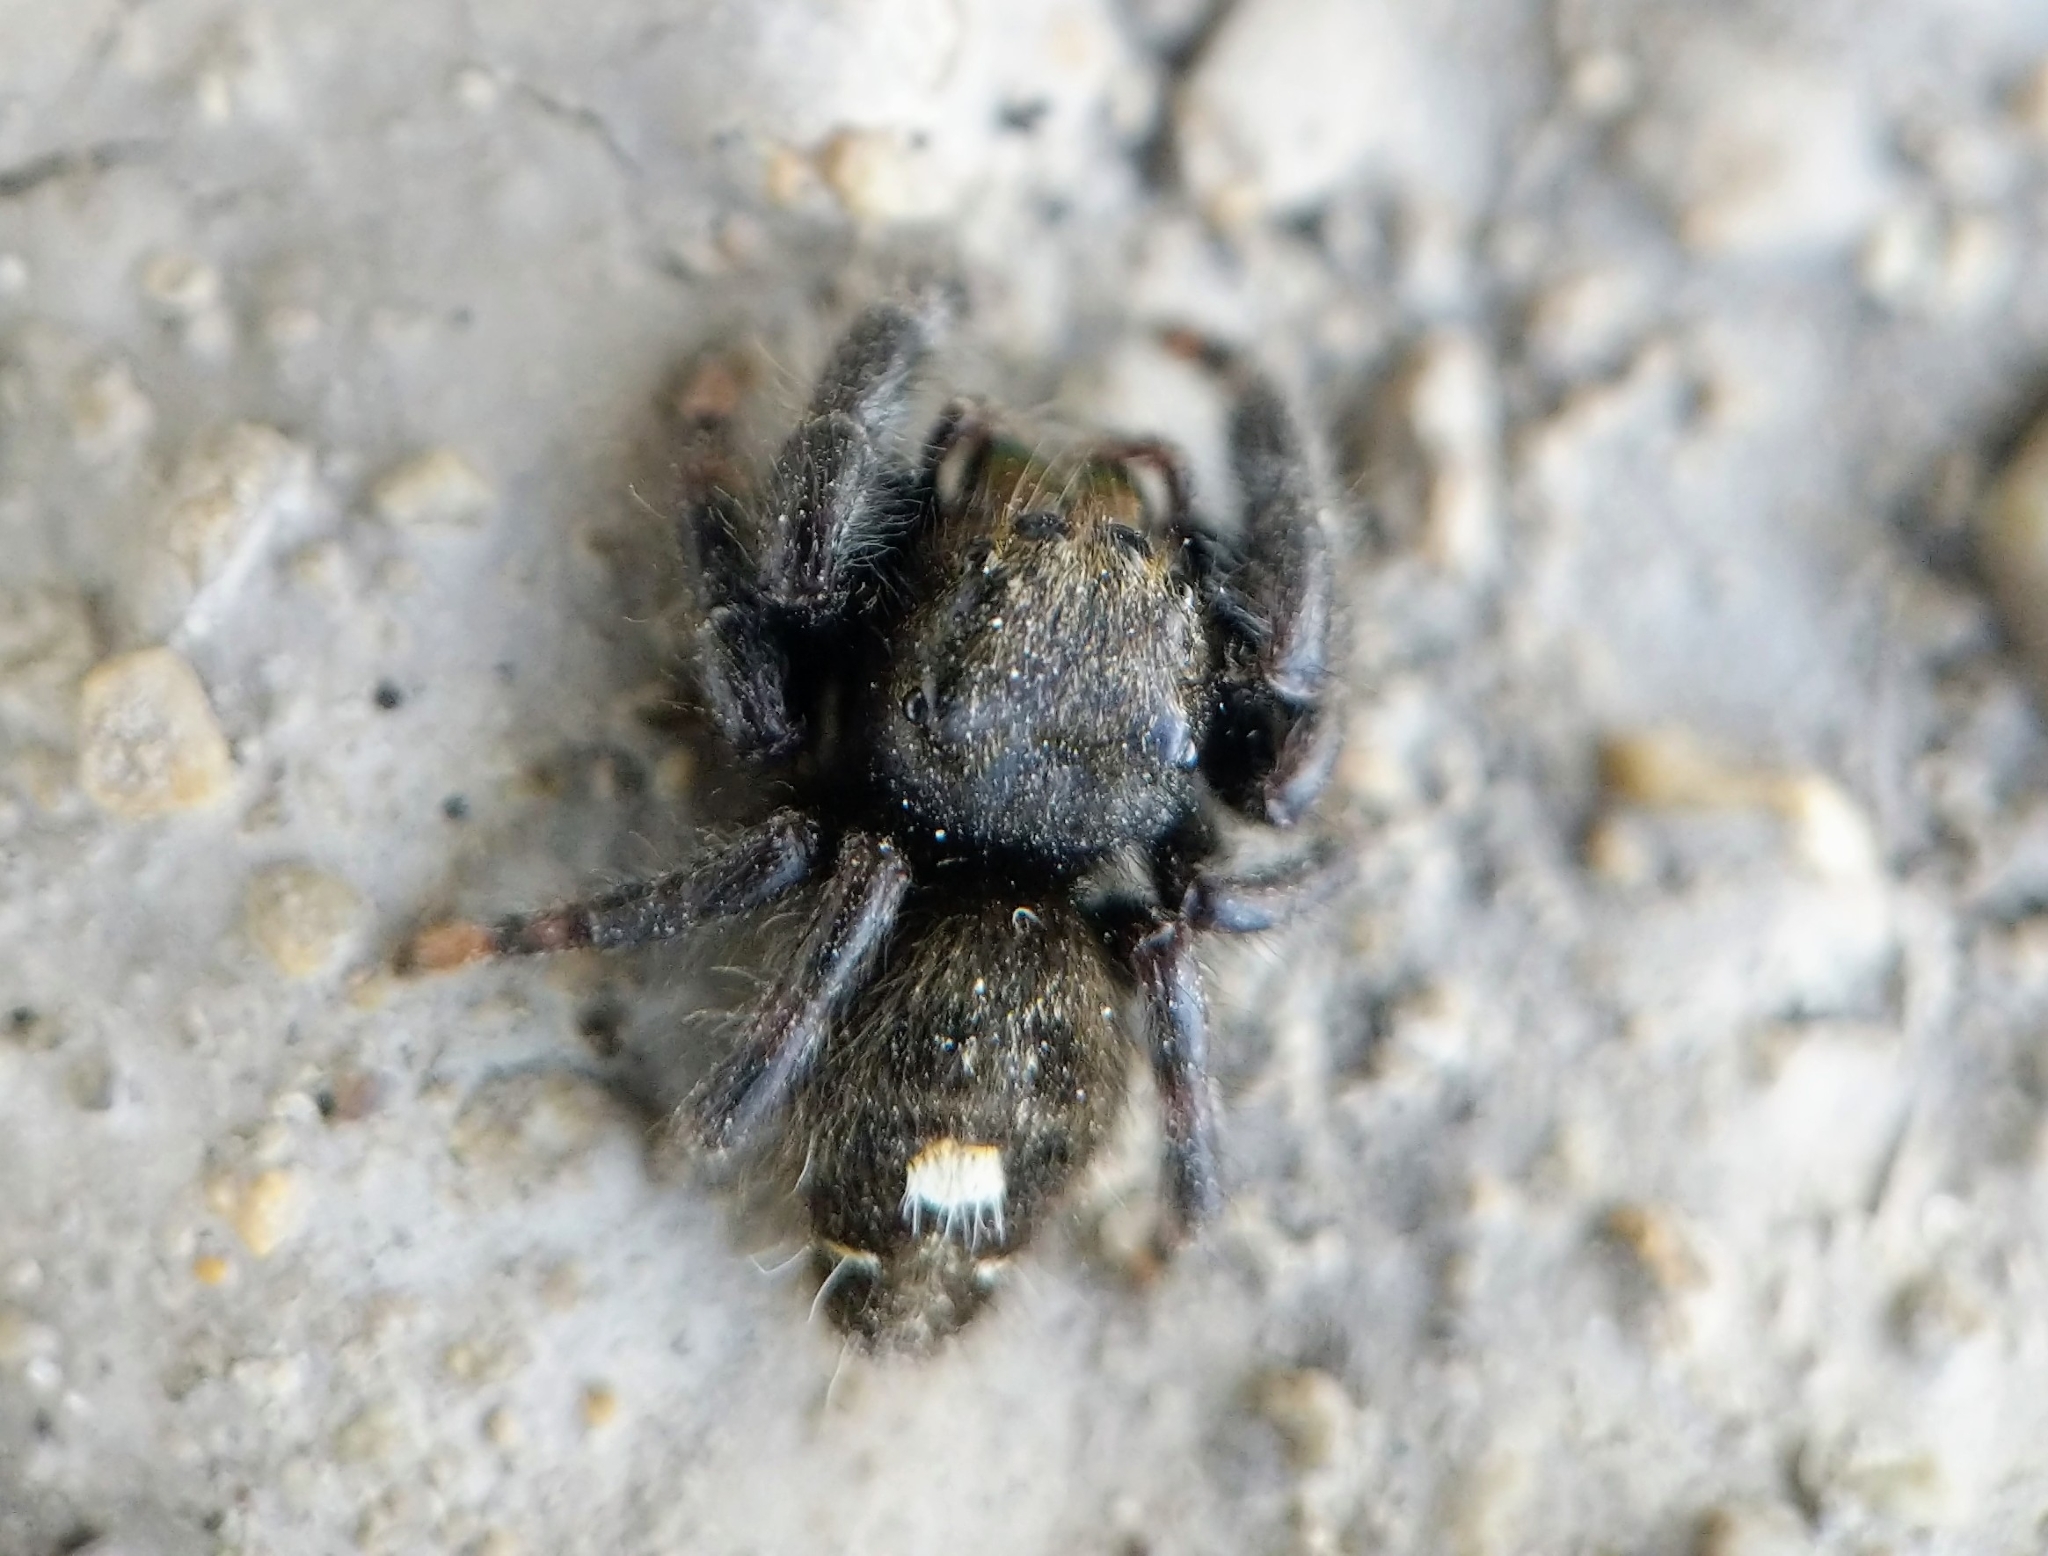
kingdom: Animalia
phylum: Arthropoda
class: Arachnida
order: Araneae
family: Salticidae
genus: Phidippus
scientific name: Phidippus audax
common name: Bold jumper
